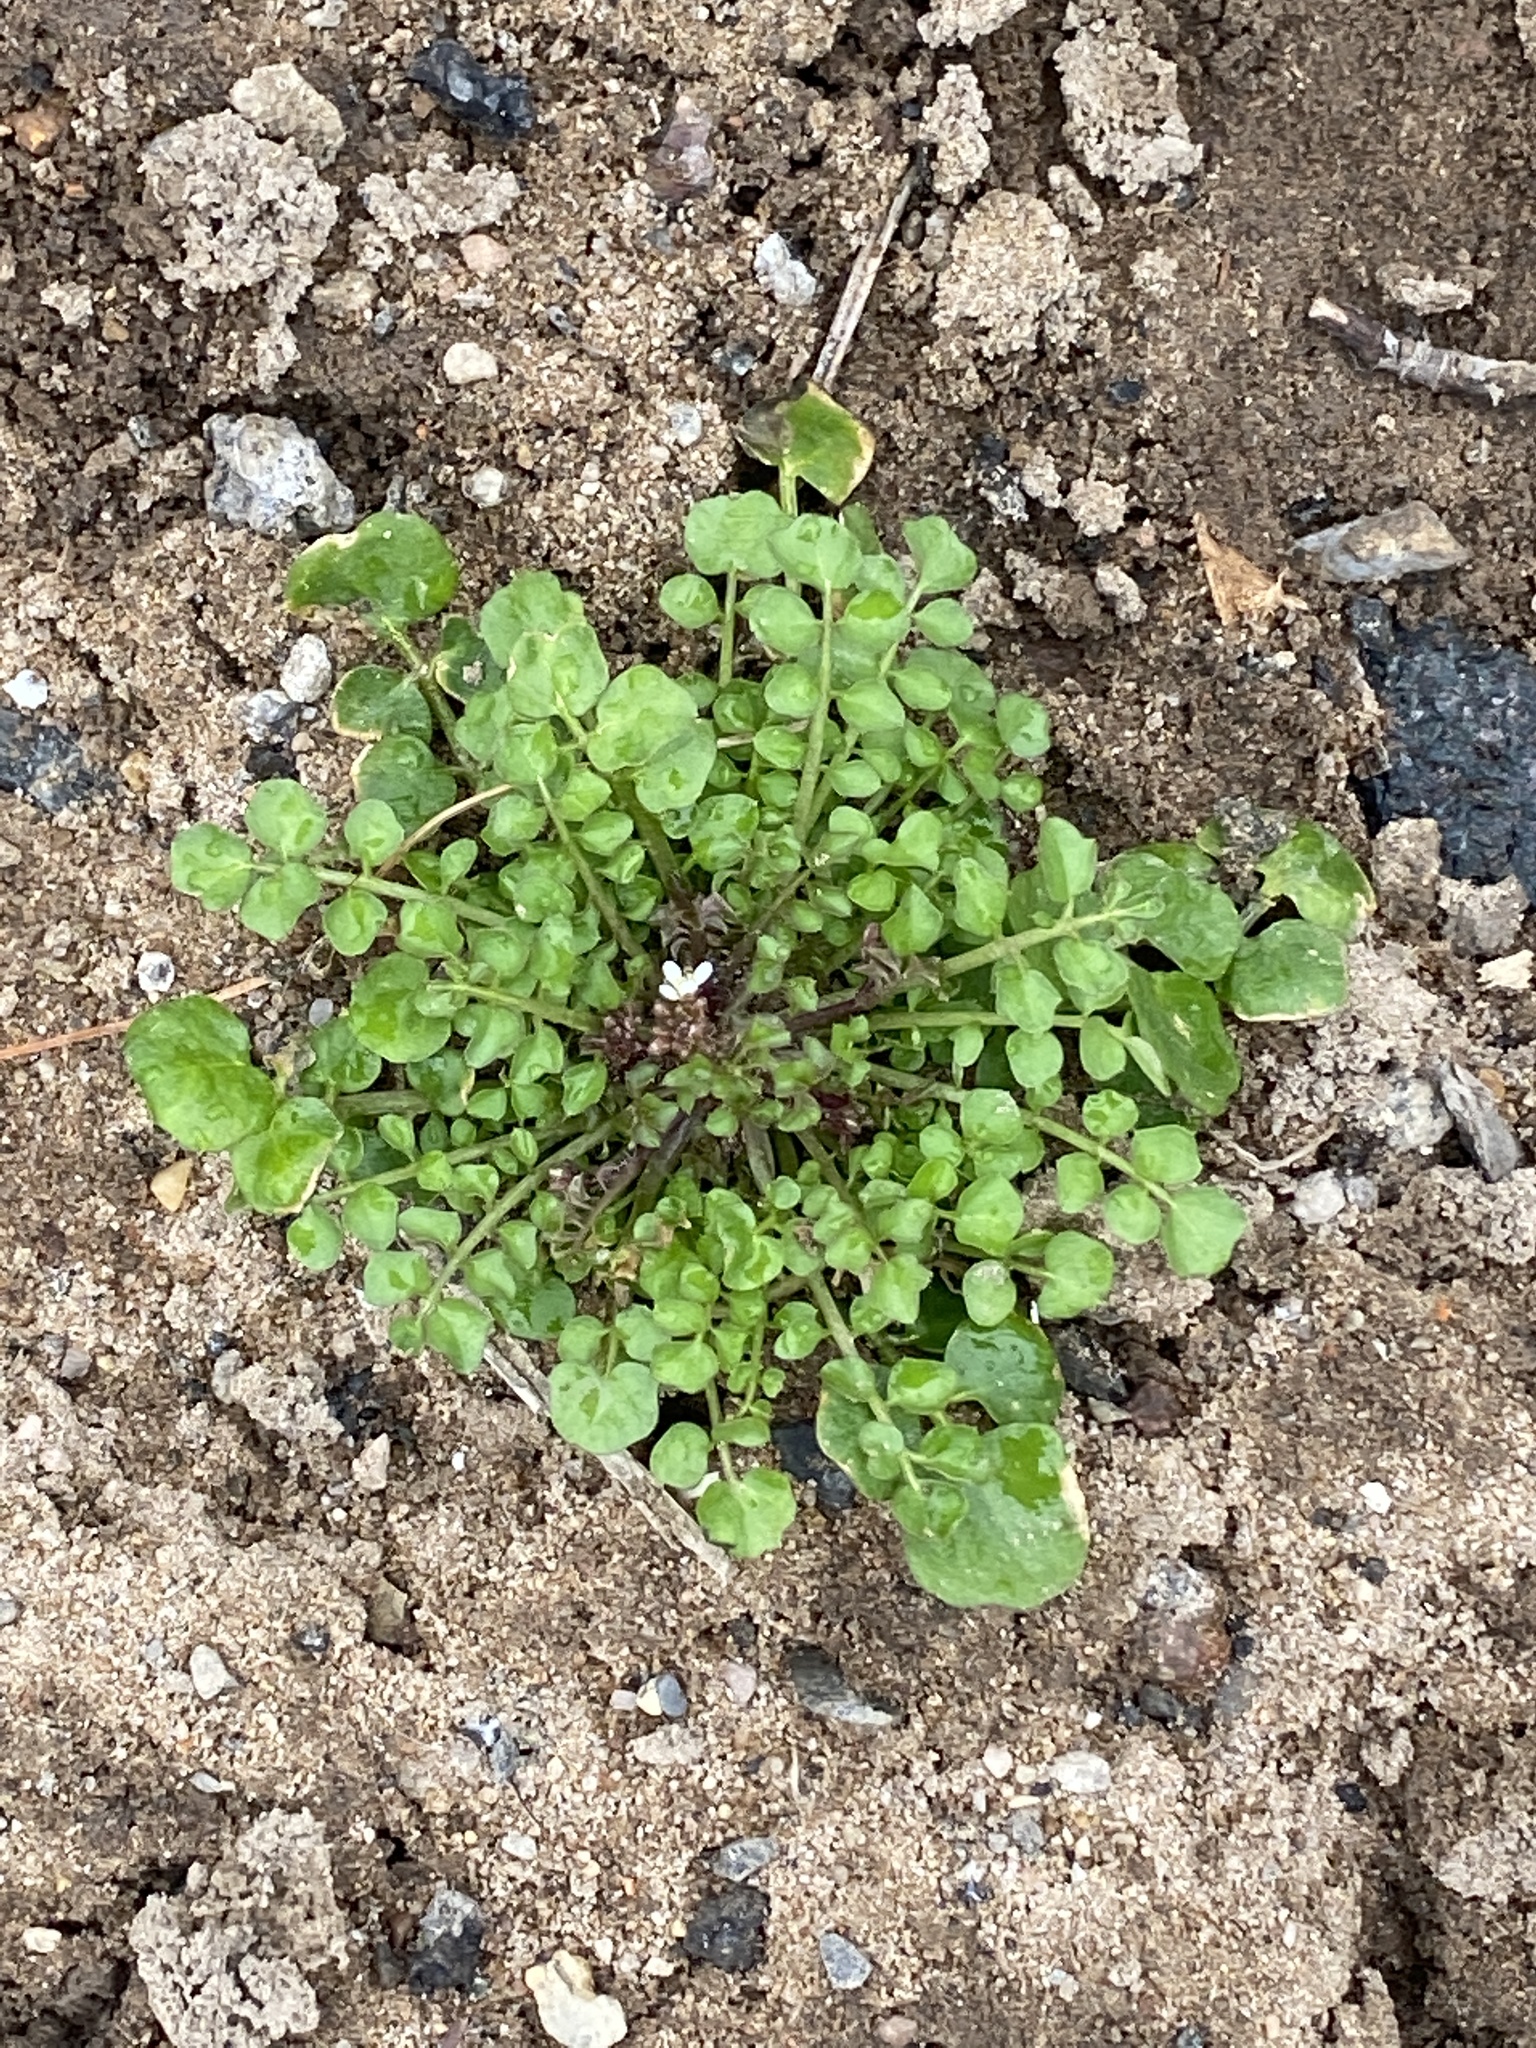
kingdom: Plantae
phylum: Tracheophyta
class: Magnoliopsida
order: Brassicales
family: Brassicaceae
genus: Cardamine
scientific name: Cardamine hirsuta
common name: Hairy bittercress
